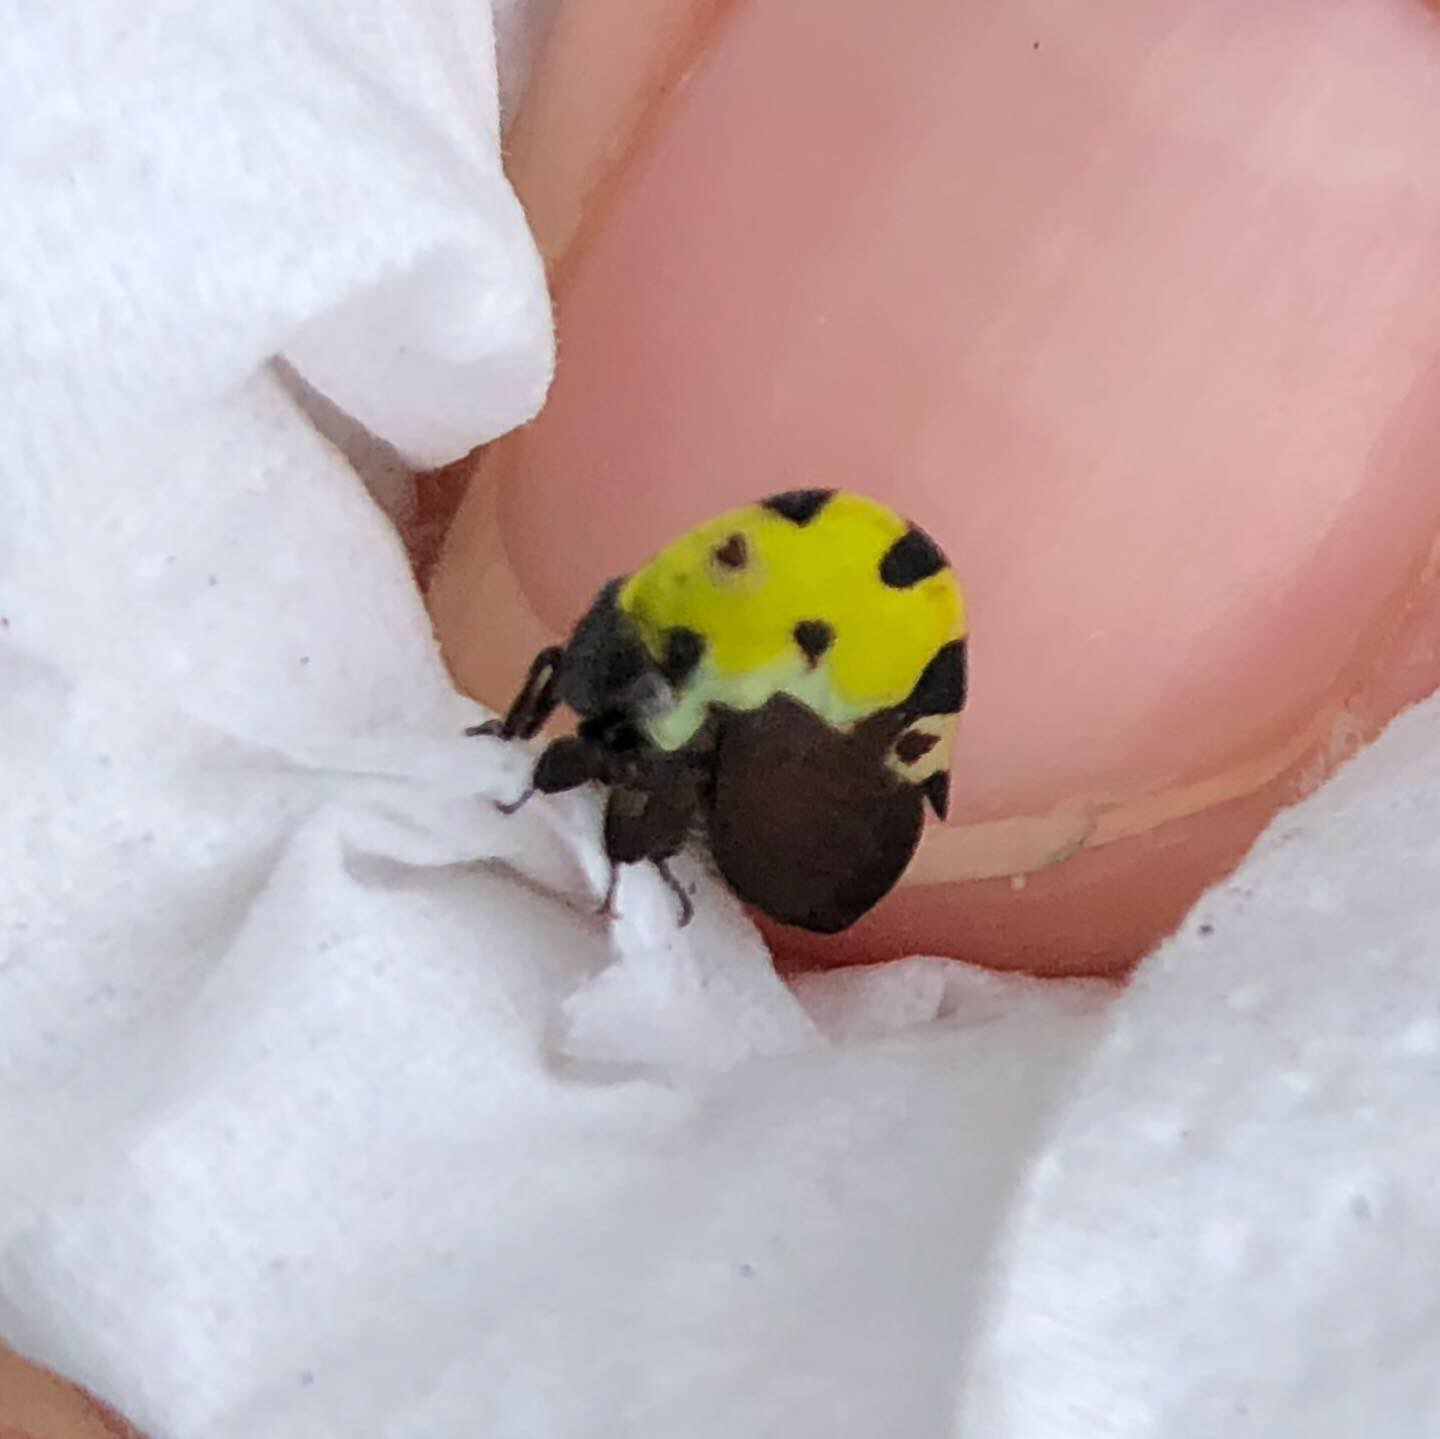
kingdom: Animalia
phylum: Arthropoda
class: Insecta
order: Hemiptera
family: Membracidae
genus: Membracis
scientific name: Membracis mexicana
